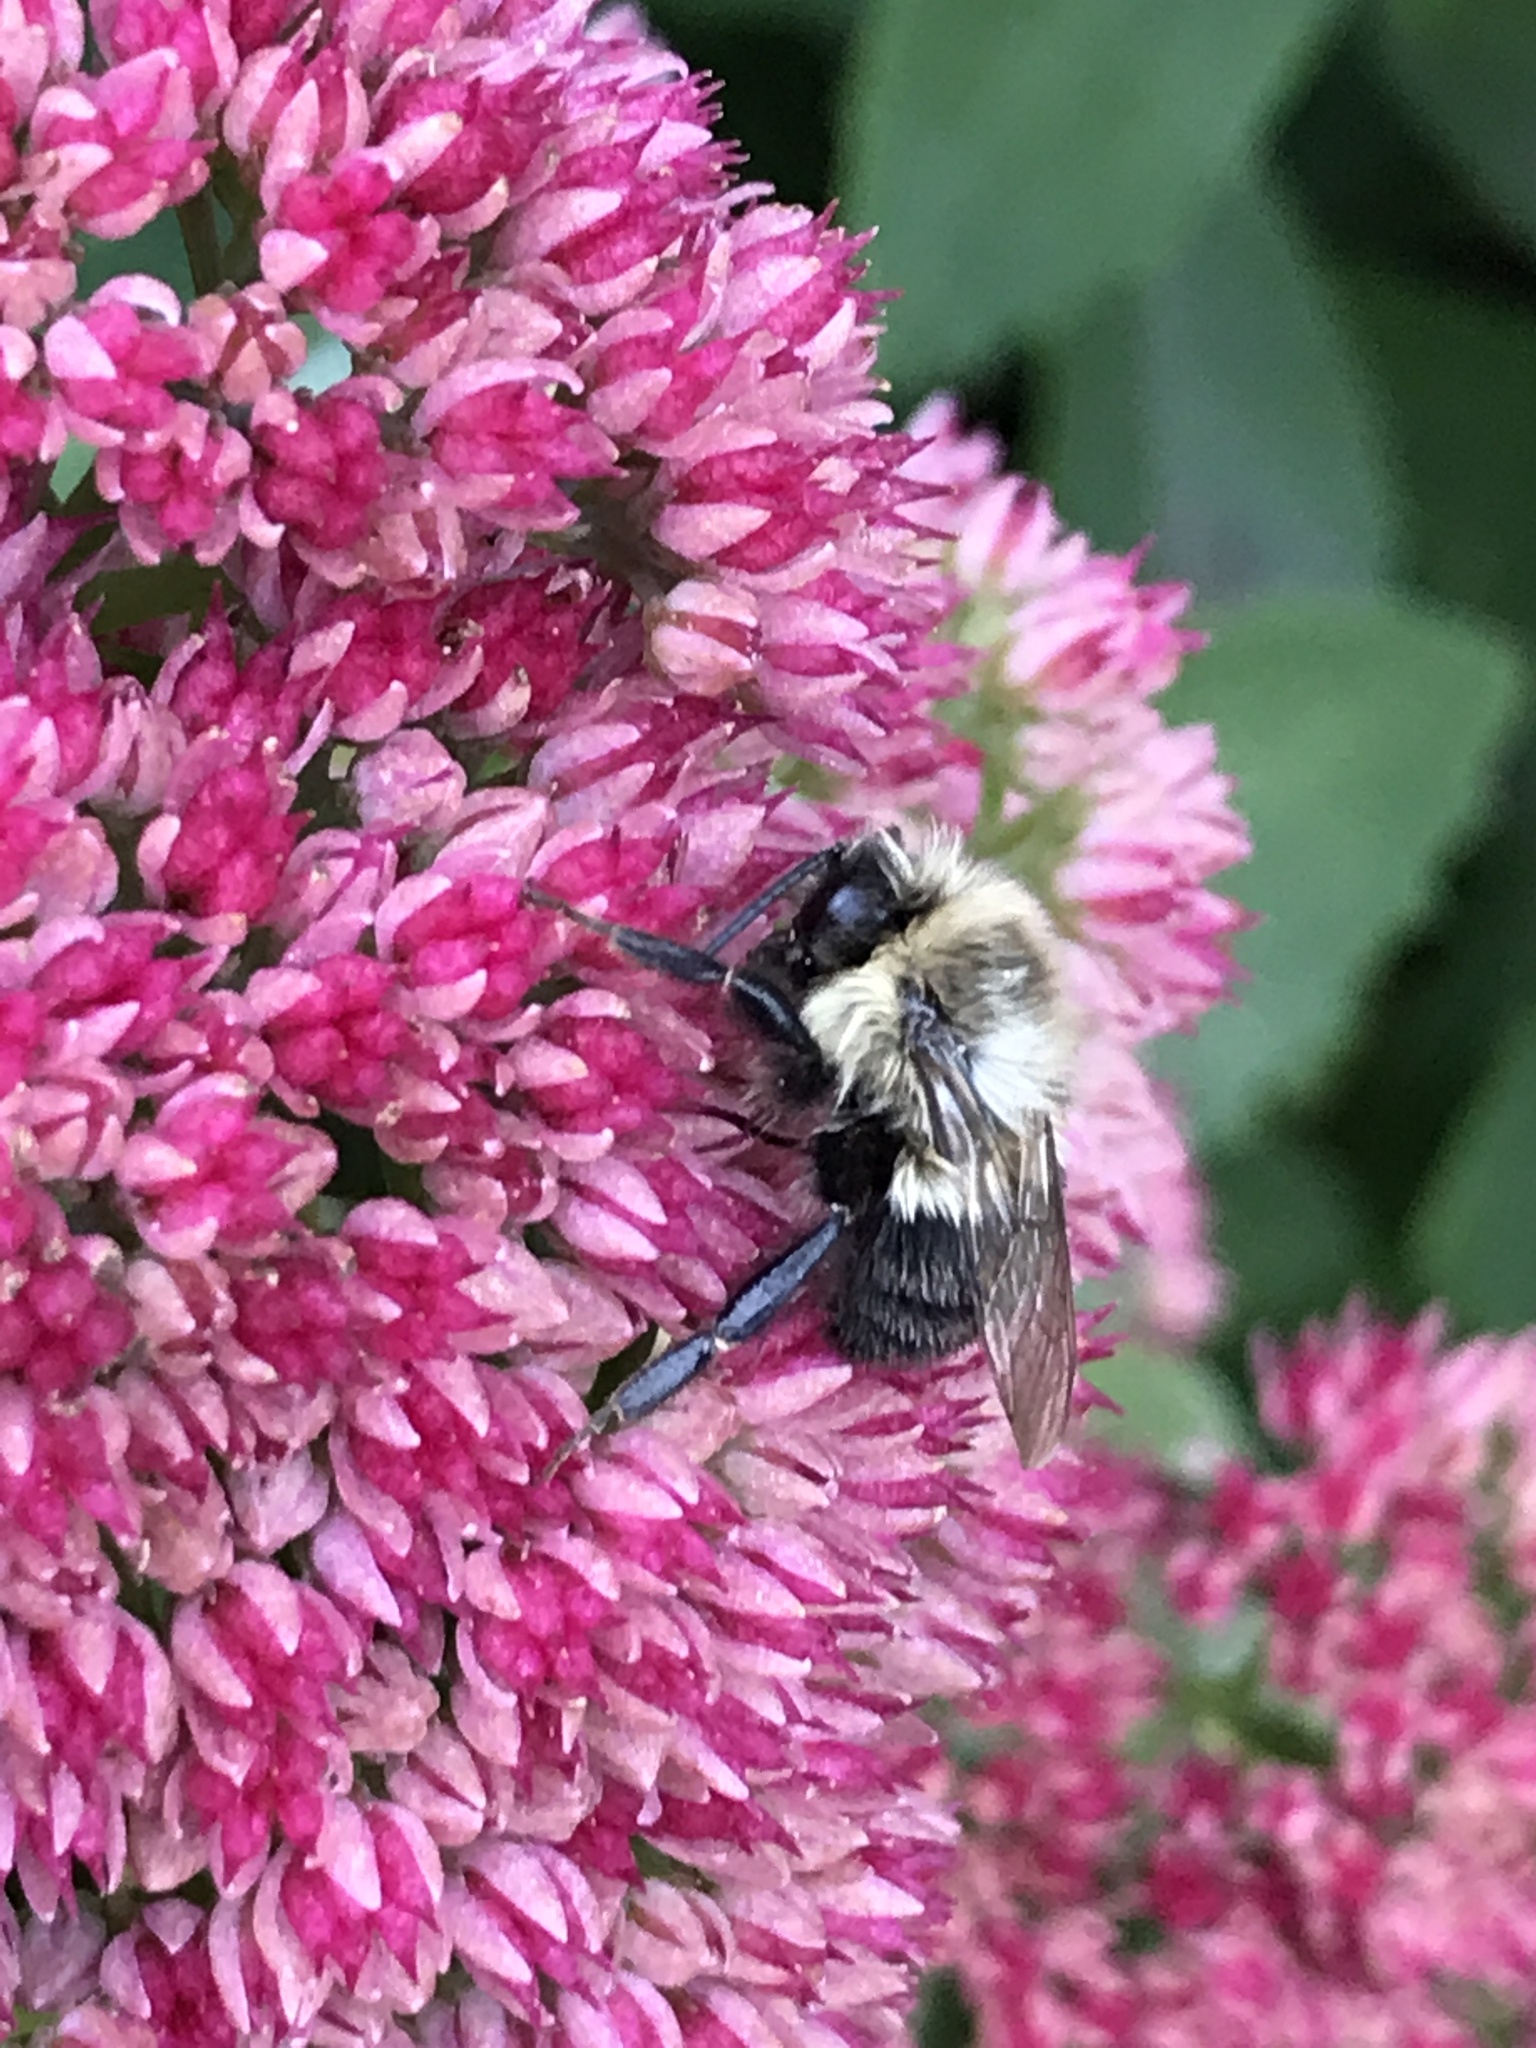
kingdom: Animalia
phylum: Arthropoda
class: Insecta
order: Hymenoptera
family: Apidae
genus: Bombus
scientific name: Bombus impatiens
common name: Common eastern bumble bee
